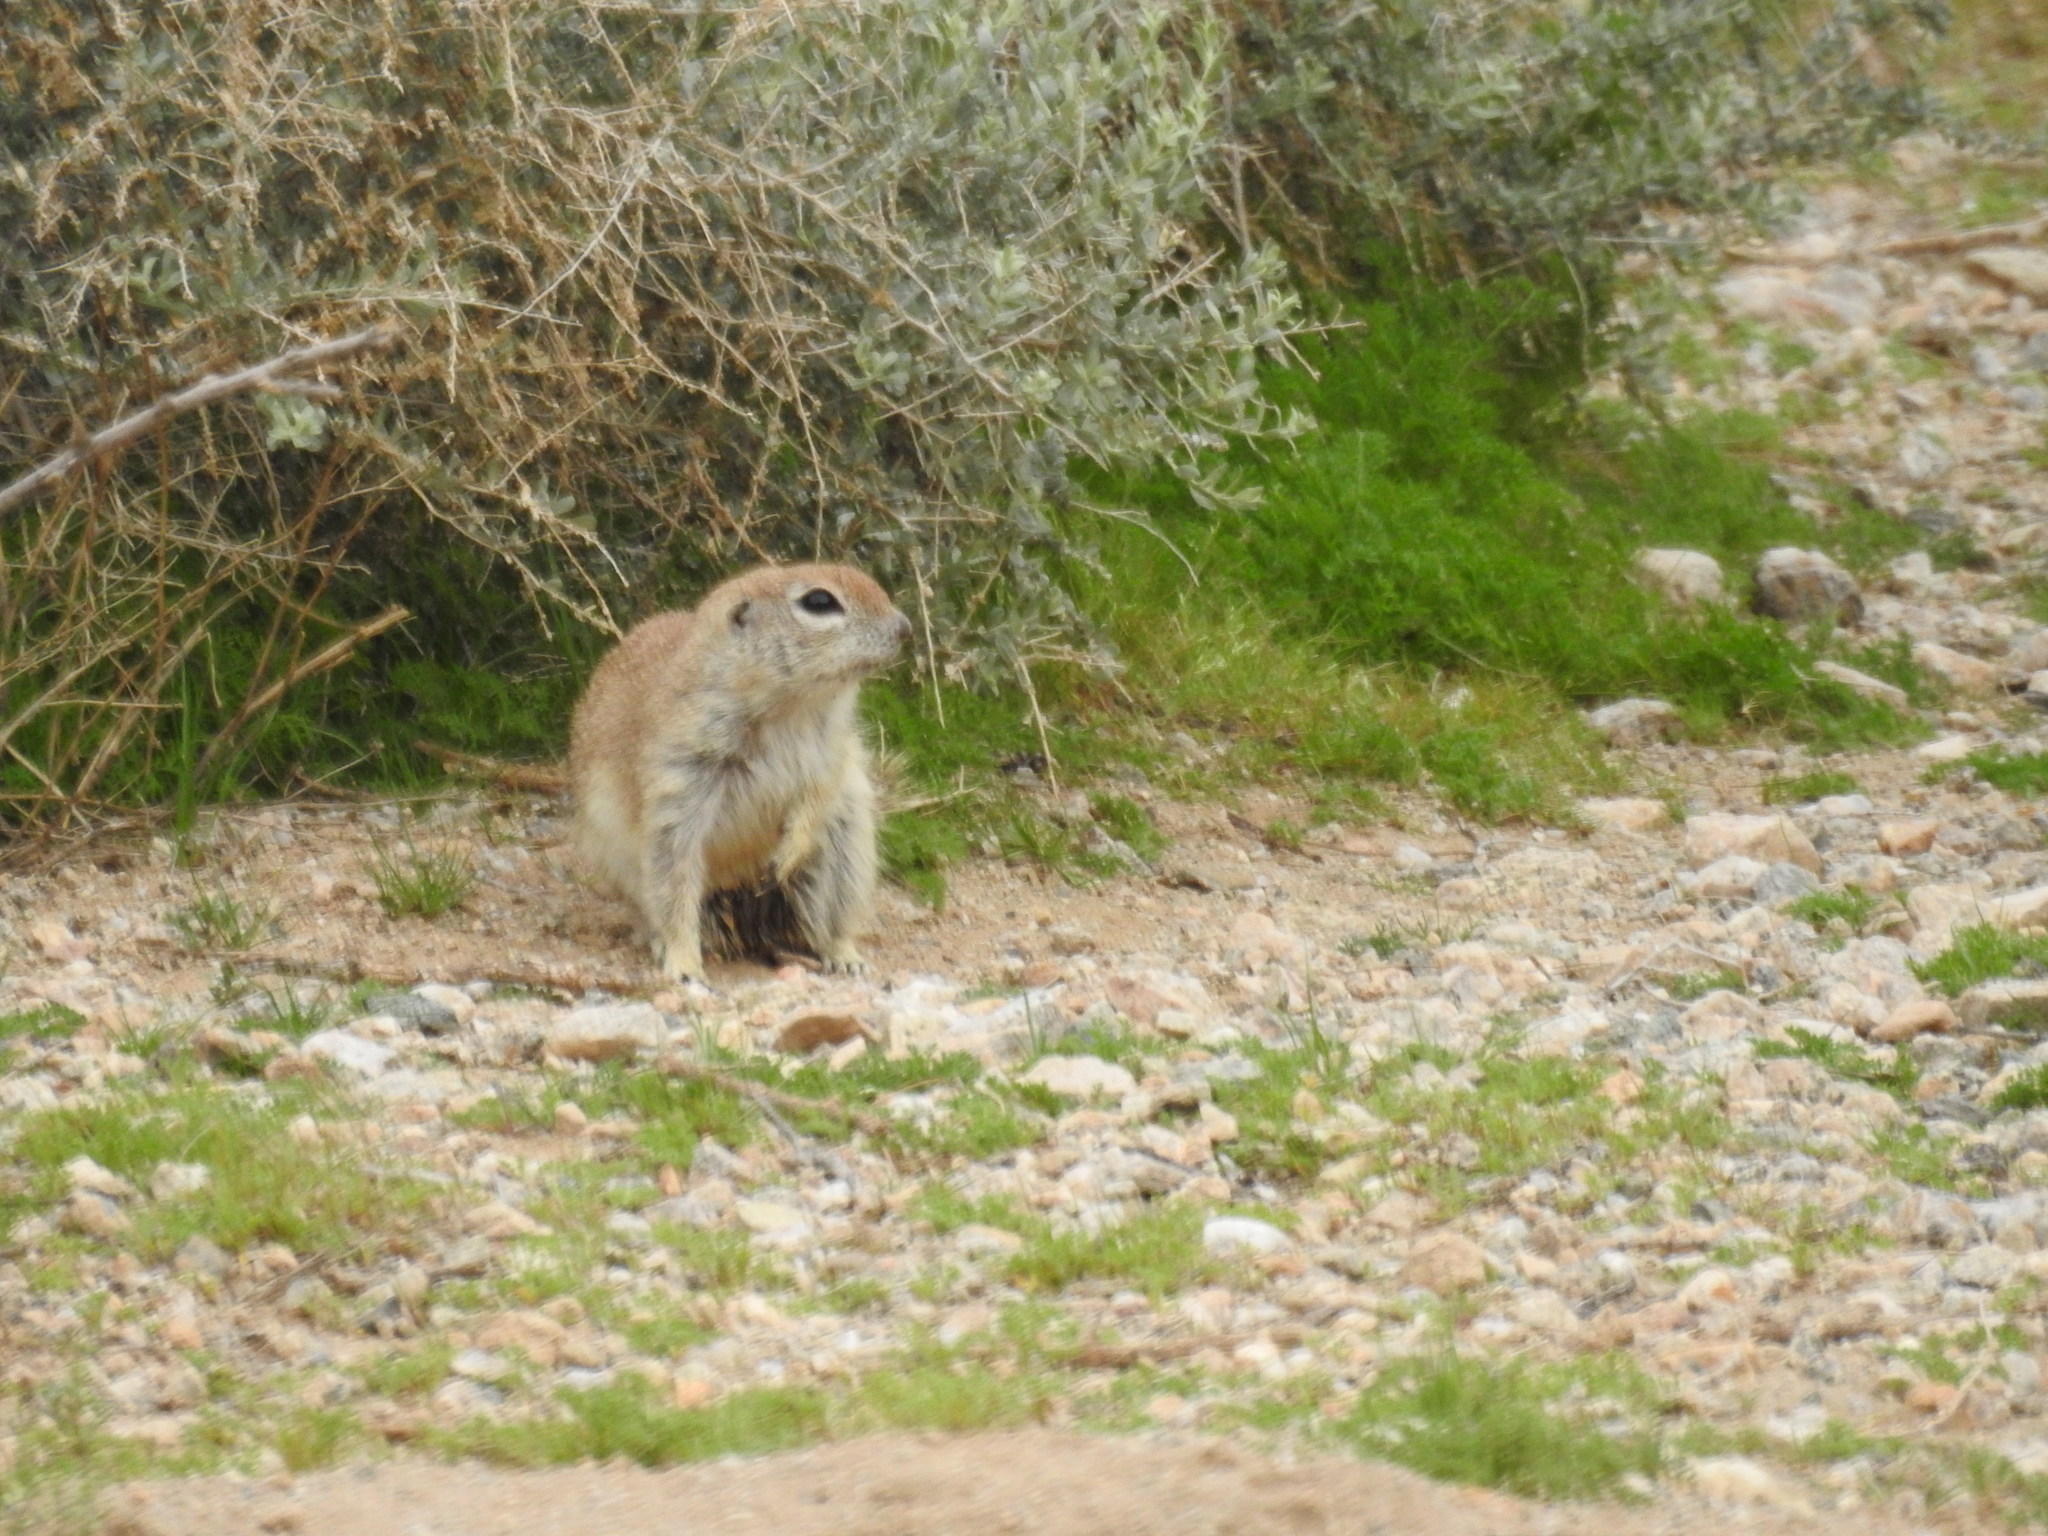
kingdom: Animalia
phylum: Chordata
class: Mammalia
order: Rodentia
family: Sciuridae
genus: Xerospermophilus
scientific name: Xerospermophilus tereticaudus
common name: Round-tailed ground squirrel
